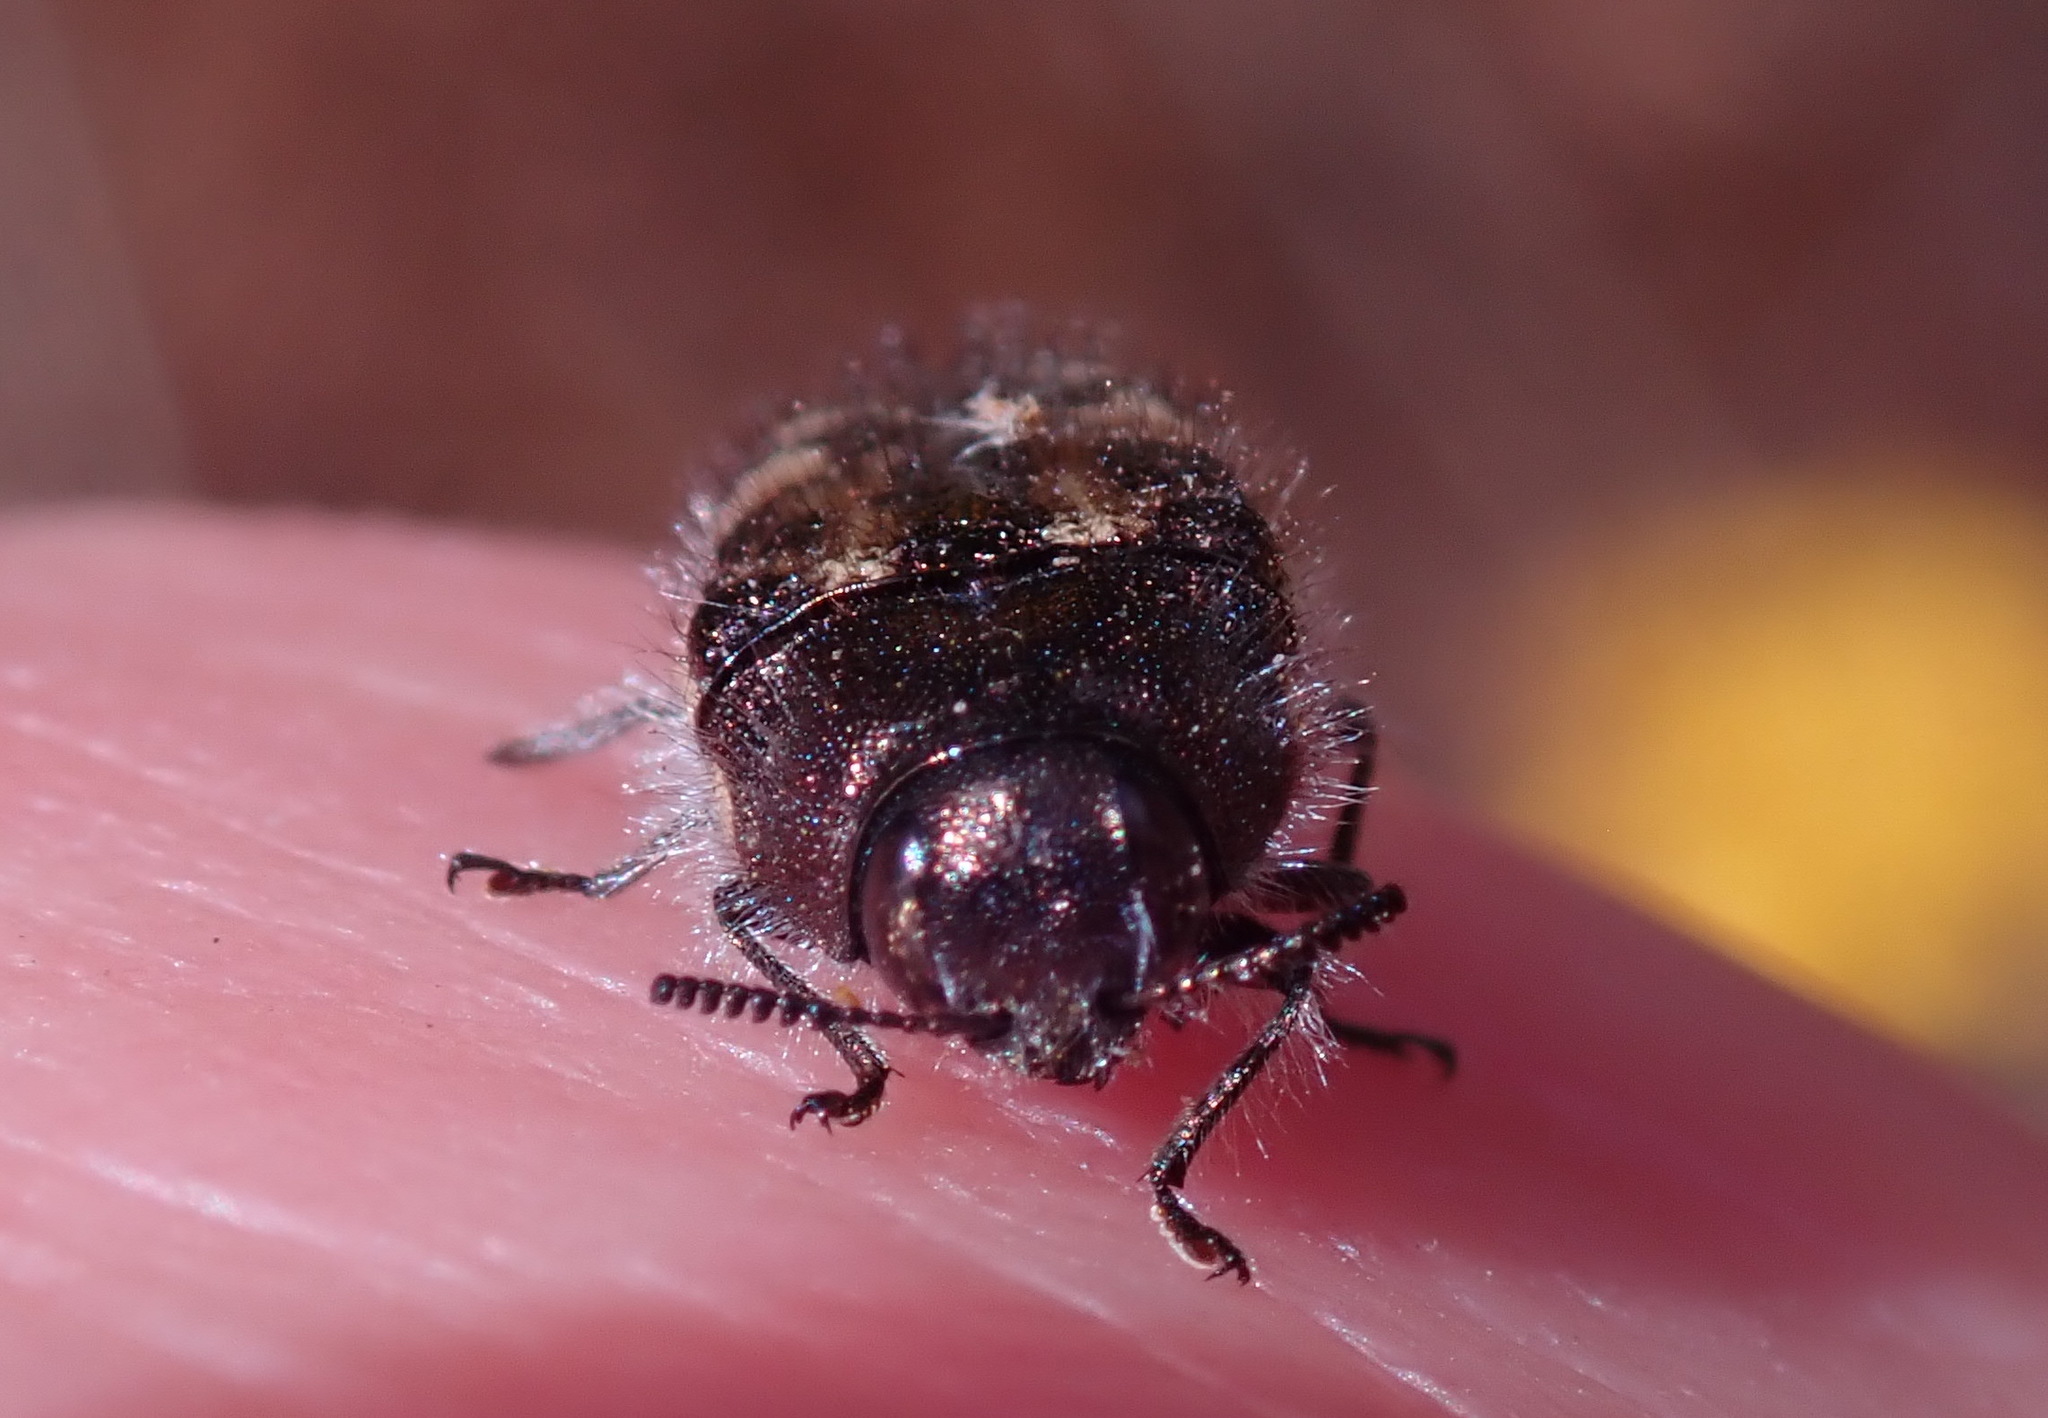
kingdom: Animalia
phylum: Arthropoda
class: Insecta
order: Coleoptera
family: Buprestidae
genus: Acmaeodera
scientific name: Acmaeodera hepburnii
